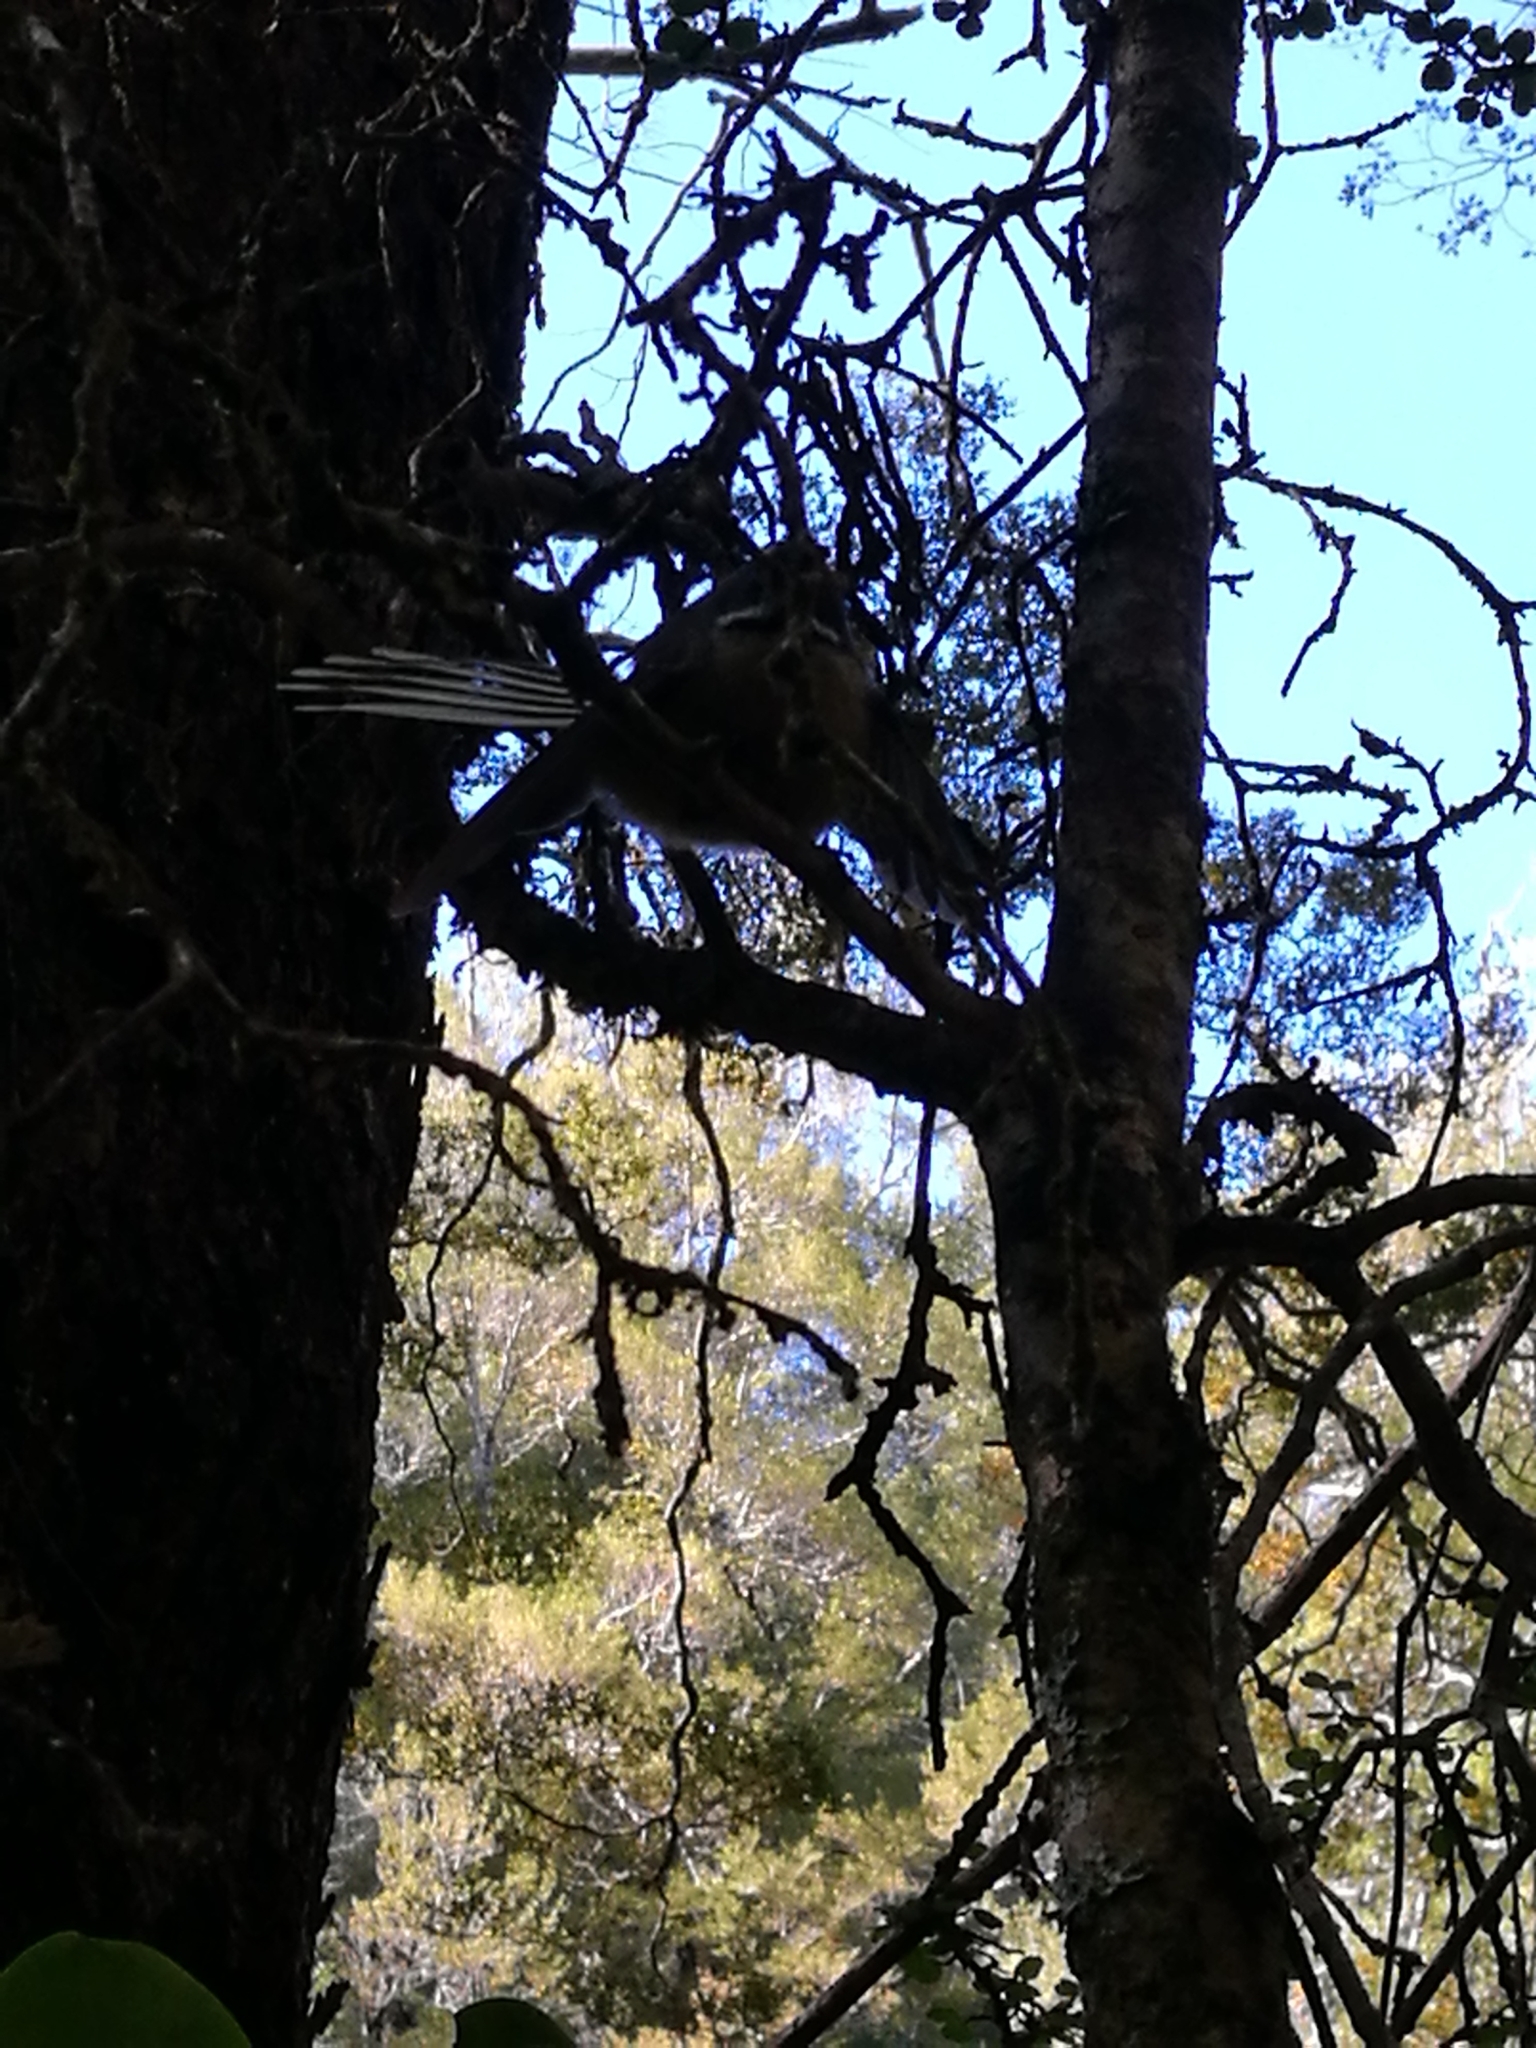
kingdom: Animalia
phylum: Chordata
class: Aves
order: Passeriformes
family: Rhipiduridae
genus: Rhipidura
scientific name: Rhipidura fuliginosa
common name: New zealand fantail
